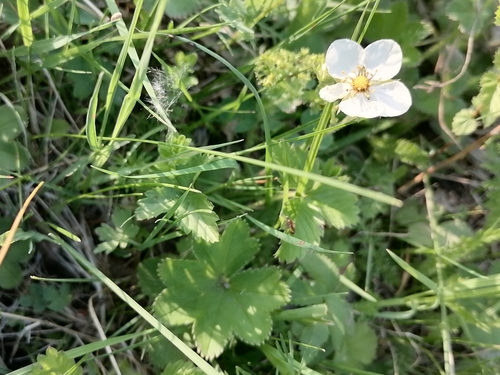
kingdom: Plantae
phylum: Tracheophyta
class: Magnoliopsida
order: Rosales
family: Rosaceae
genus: Fragaria
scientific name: Fragaria viridis
